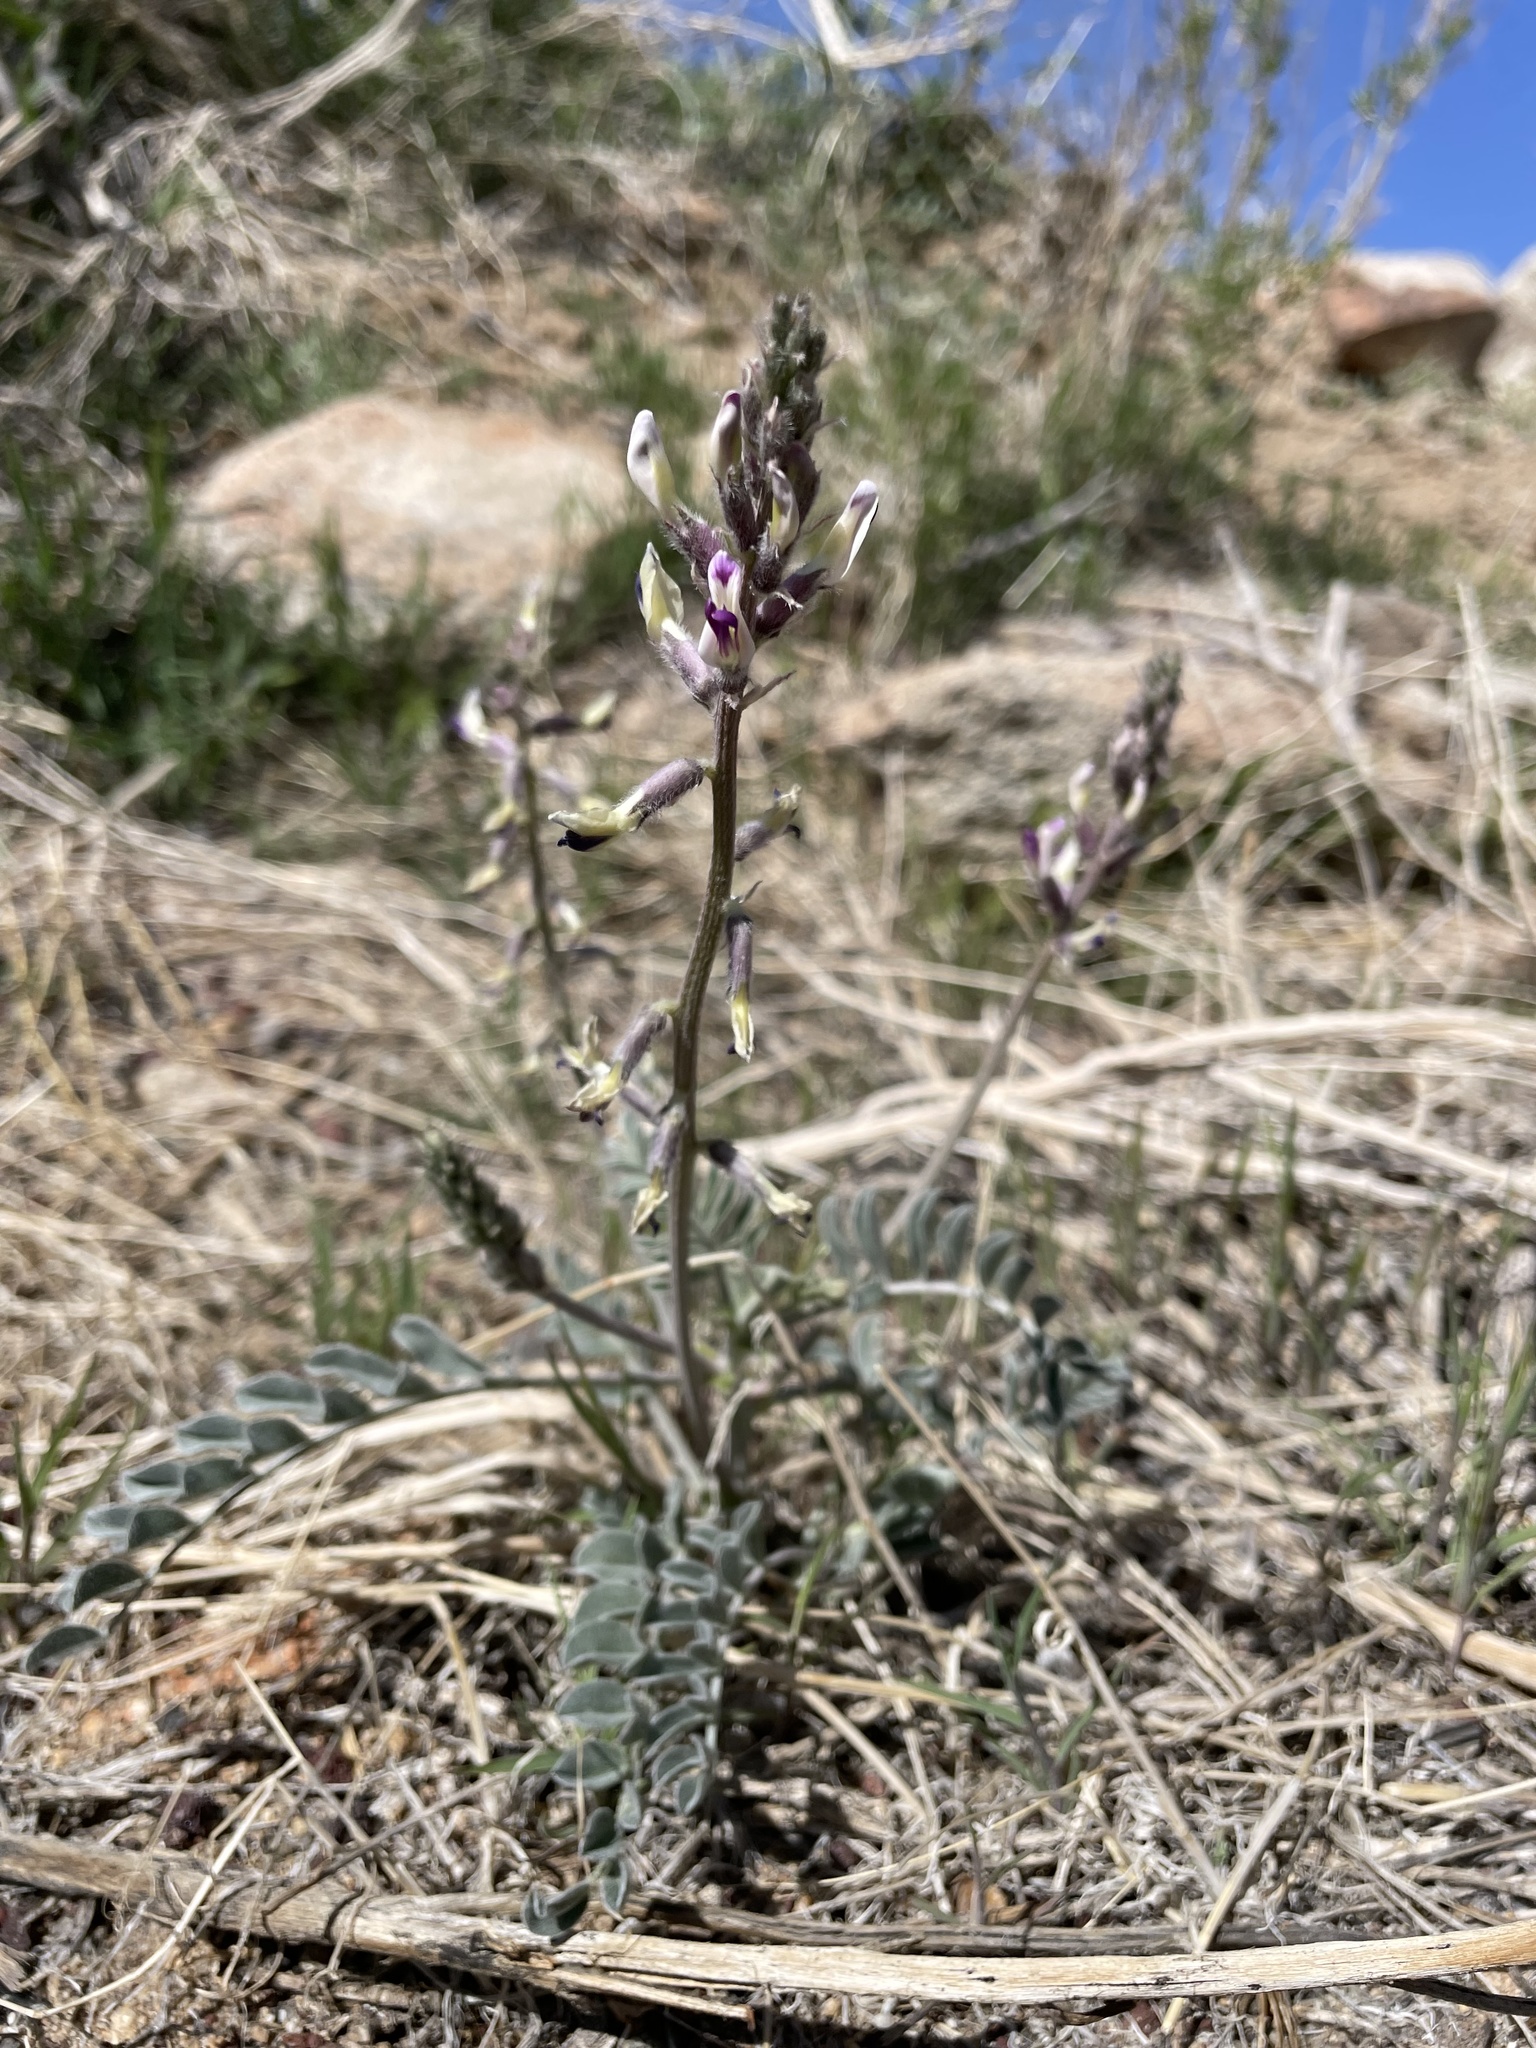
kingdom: Plantae
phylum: Tracheophyta
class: Magnoliopsida
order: Fabales
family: Fabaceae
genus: Astragalus
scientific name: Astragalus layneae
